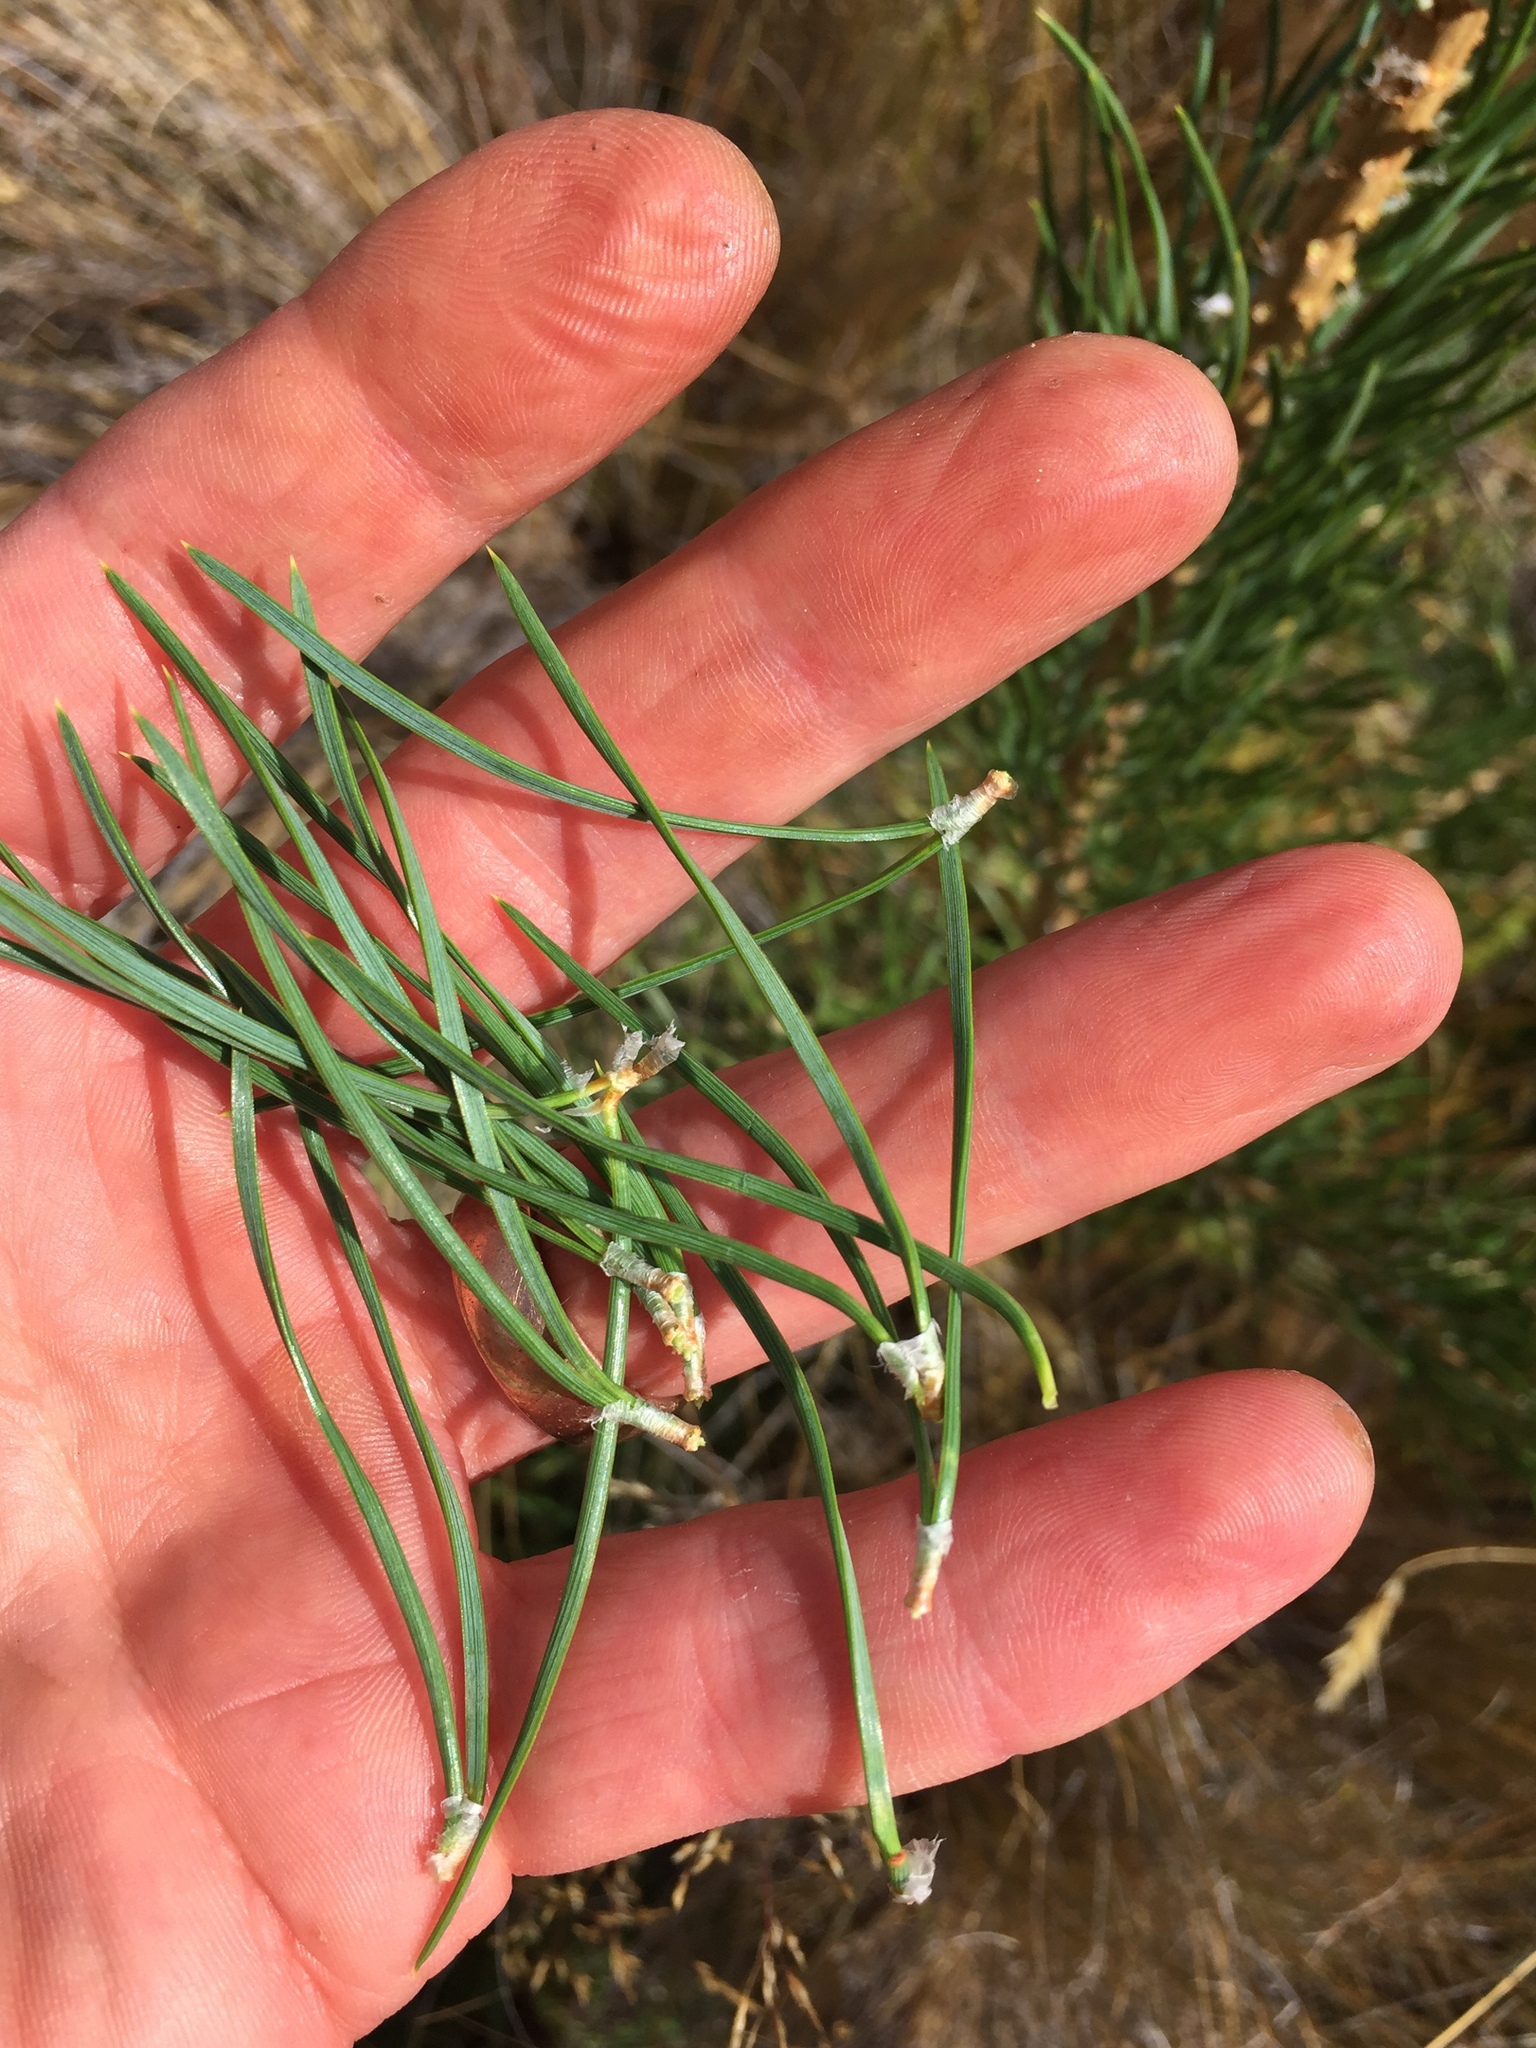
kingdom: Plantae
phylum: Tracheophyta
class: Pinopsida
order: Pinales
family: Pinaceae
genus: Pinus
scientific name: Pinus sylvestris
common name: Scots pine
